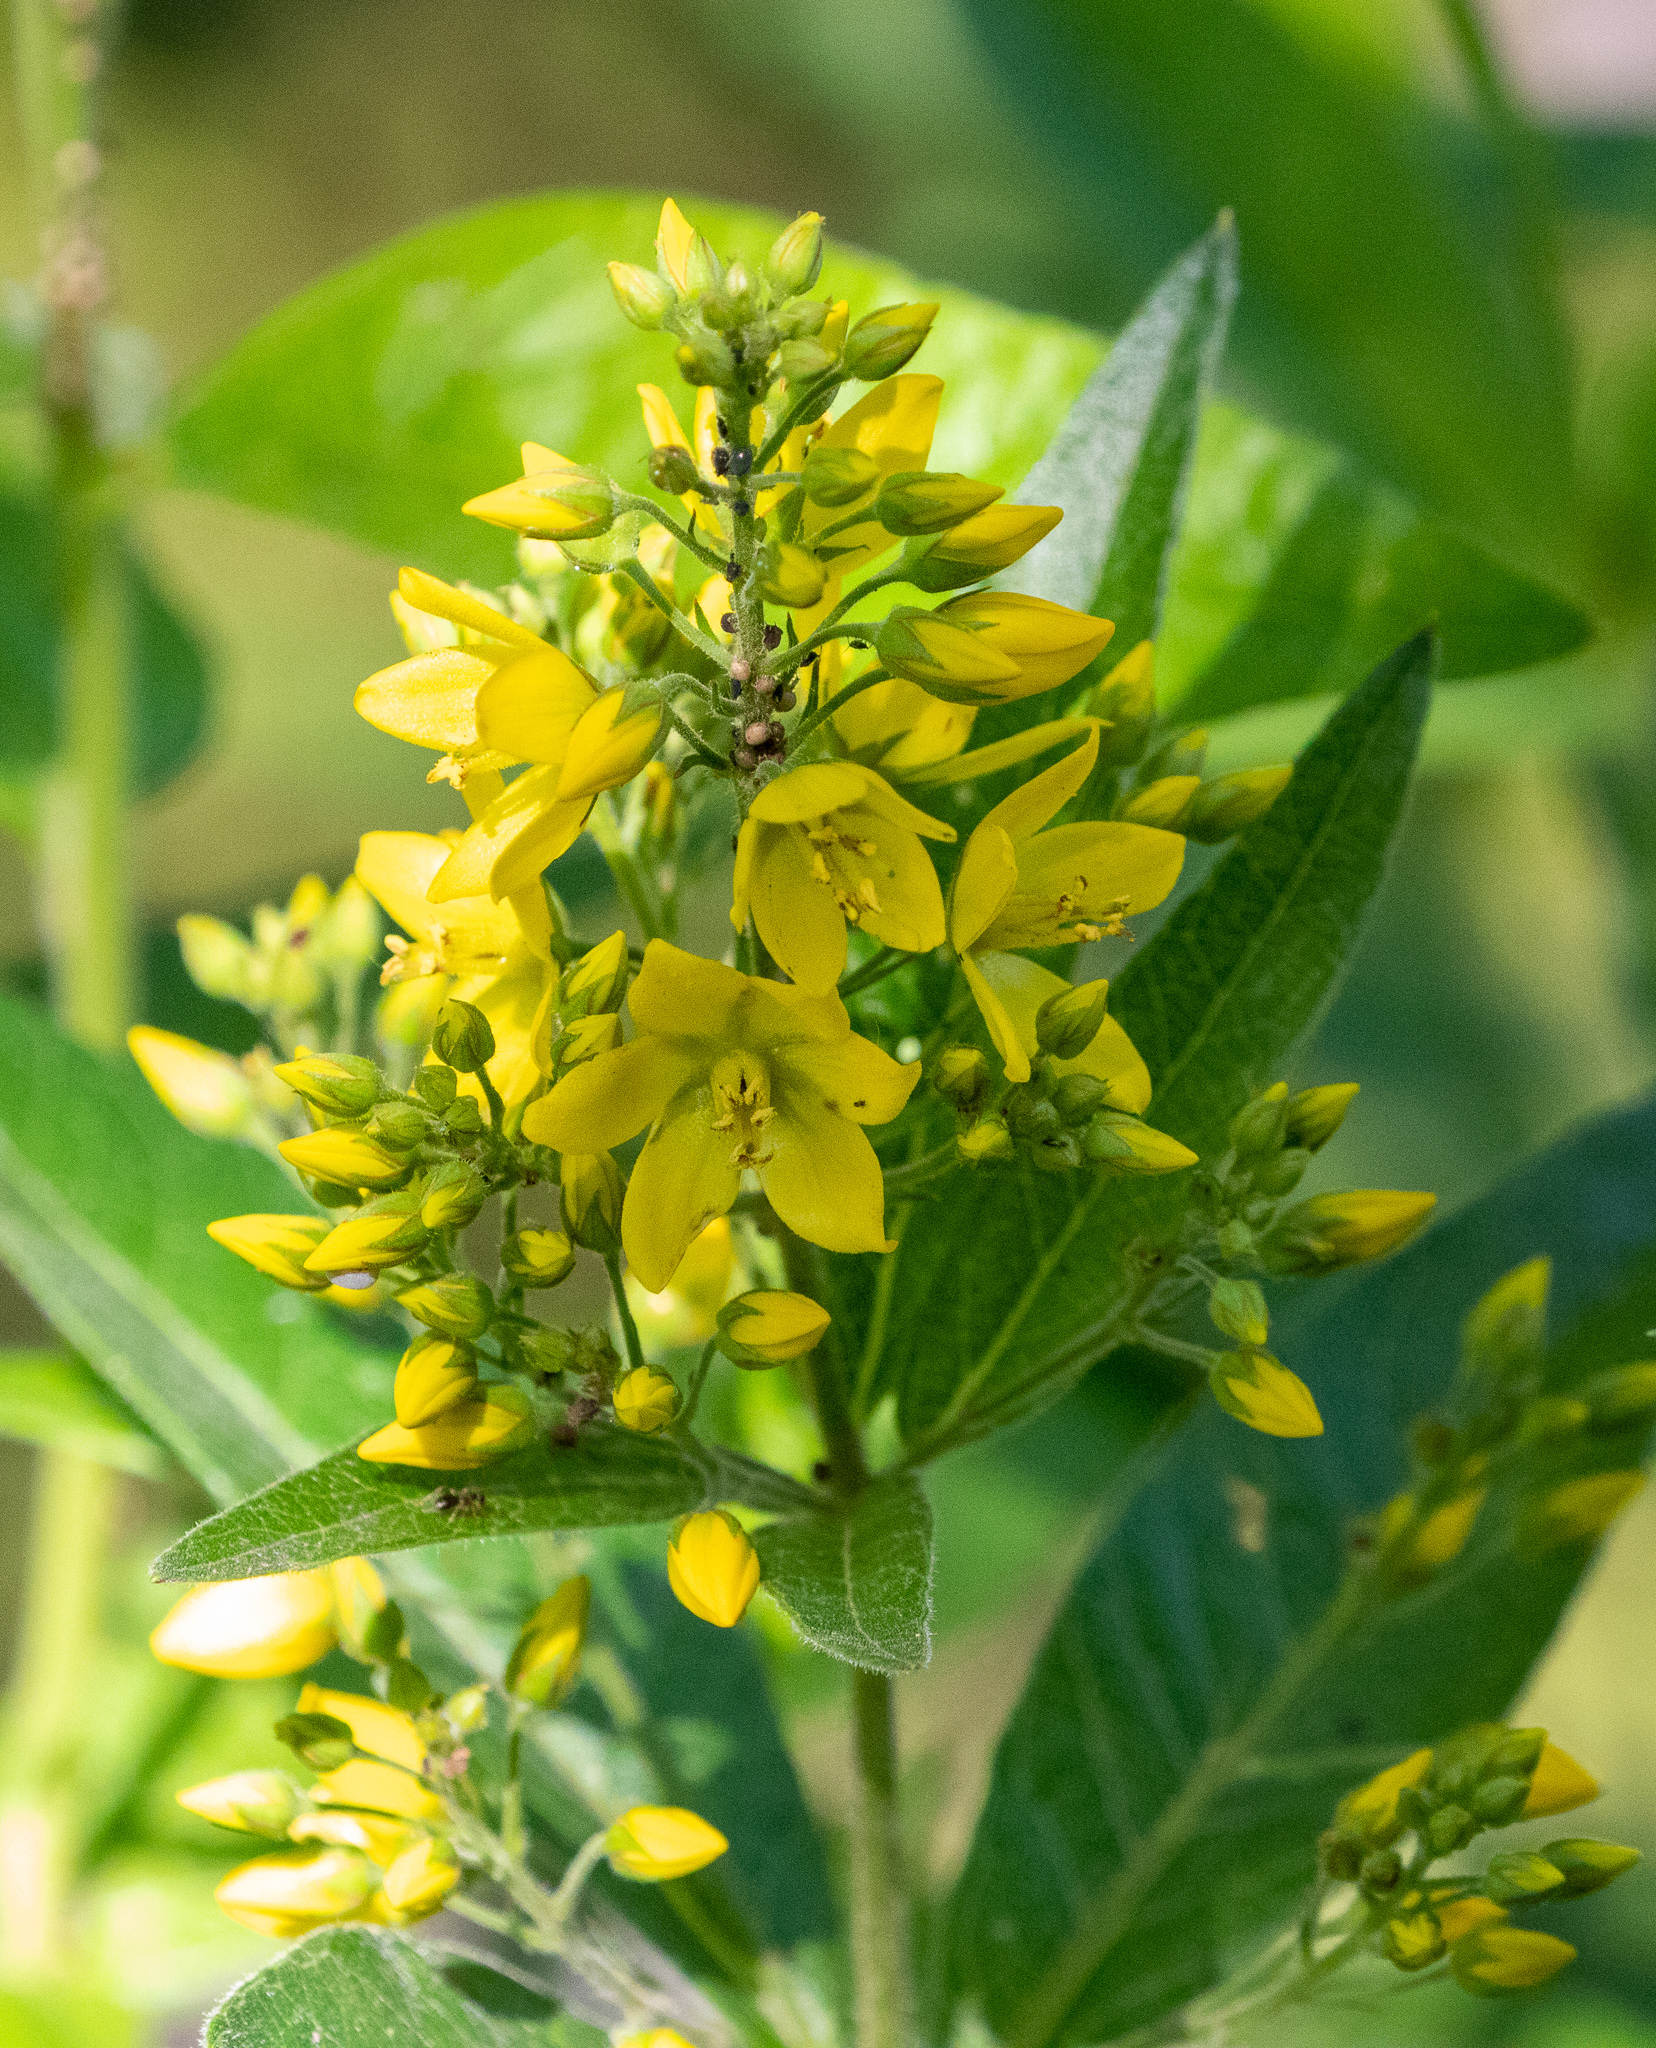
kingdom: Plantae
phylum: Tracheophyta
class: Magnoliopsida
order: Ericales
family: Primulaceae
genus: Lysimachia
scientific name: Lysimachia vulgaris
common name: Yellow loosestrife
